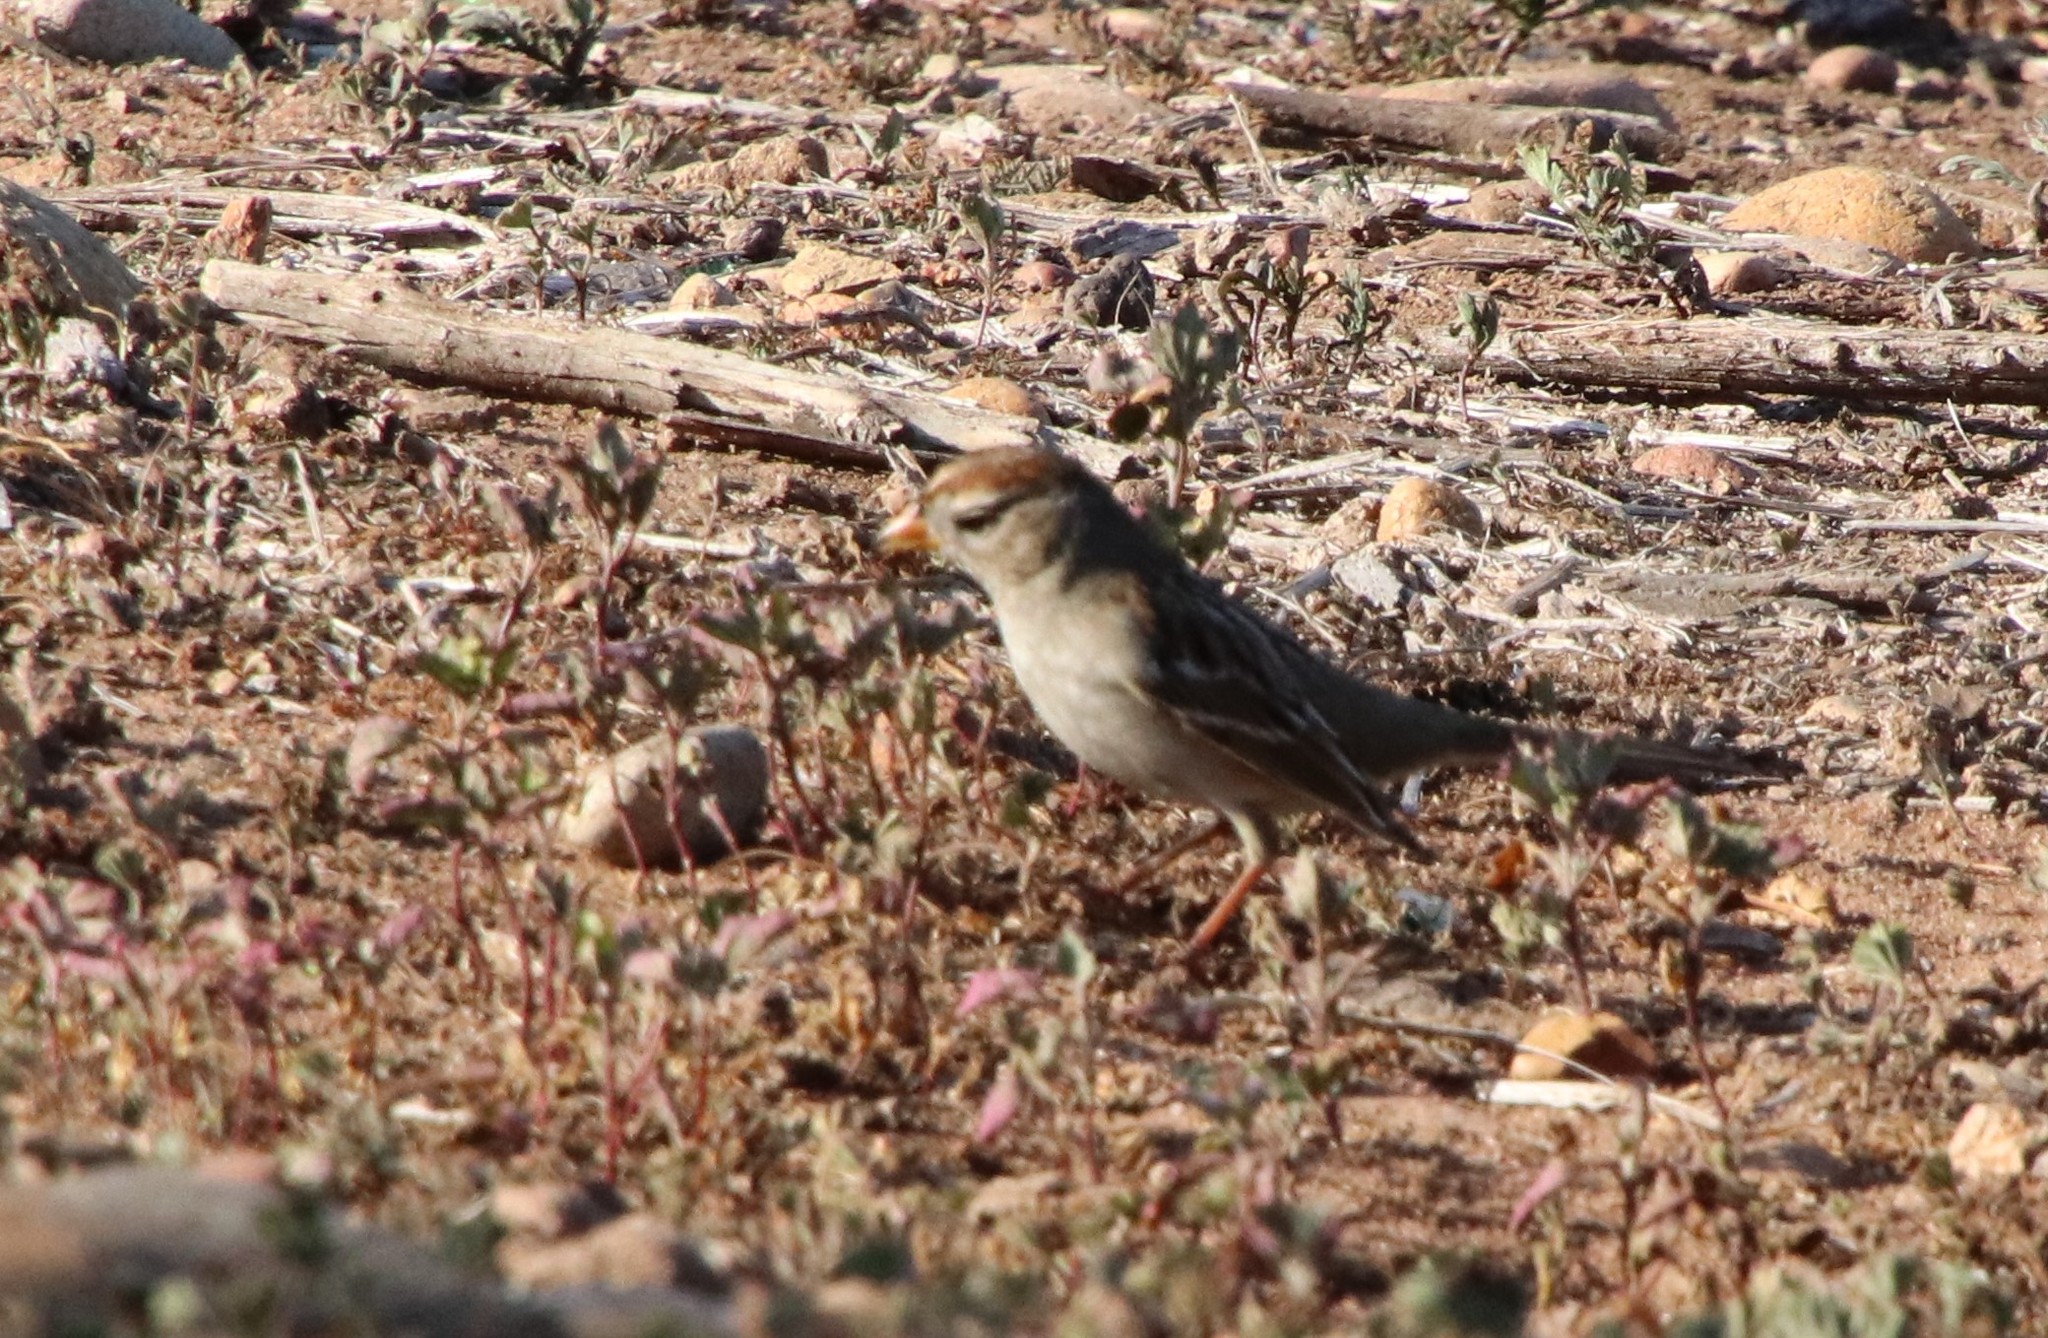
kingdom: Animalia
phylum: Chordata
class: Aves
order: Passeriformes
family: Passerellidae
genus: Zonotrichia
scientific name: Zonotrichia leucophrys
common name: White-crowned sparrow
